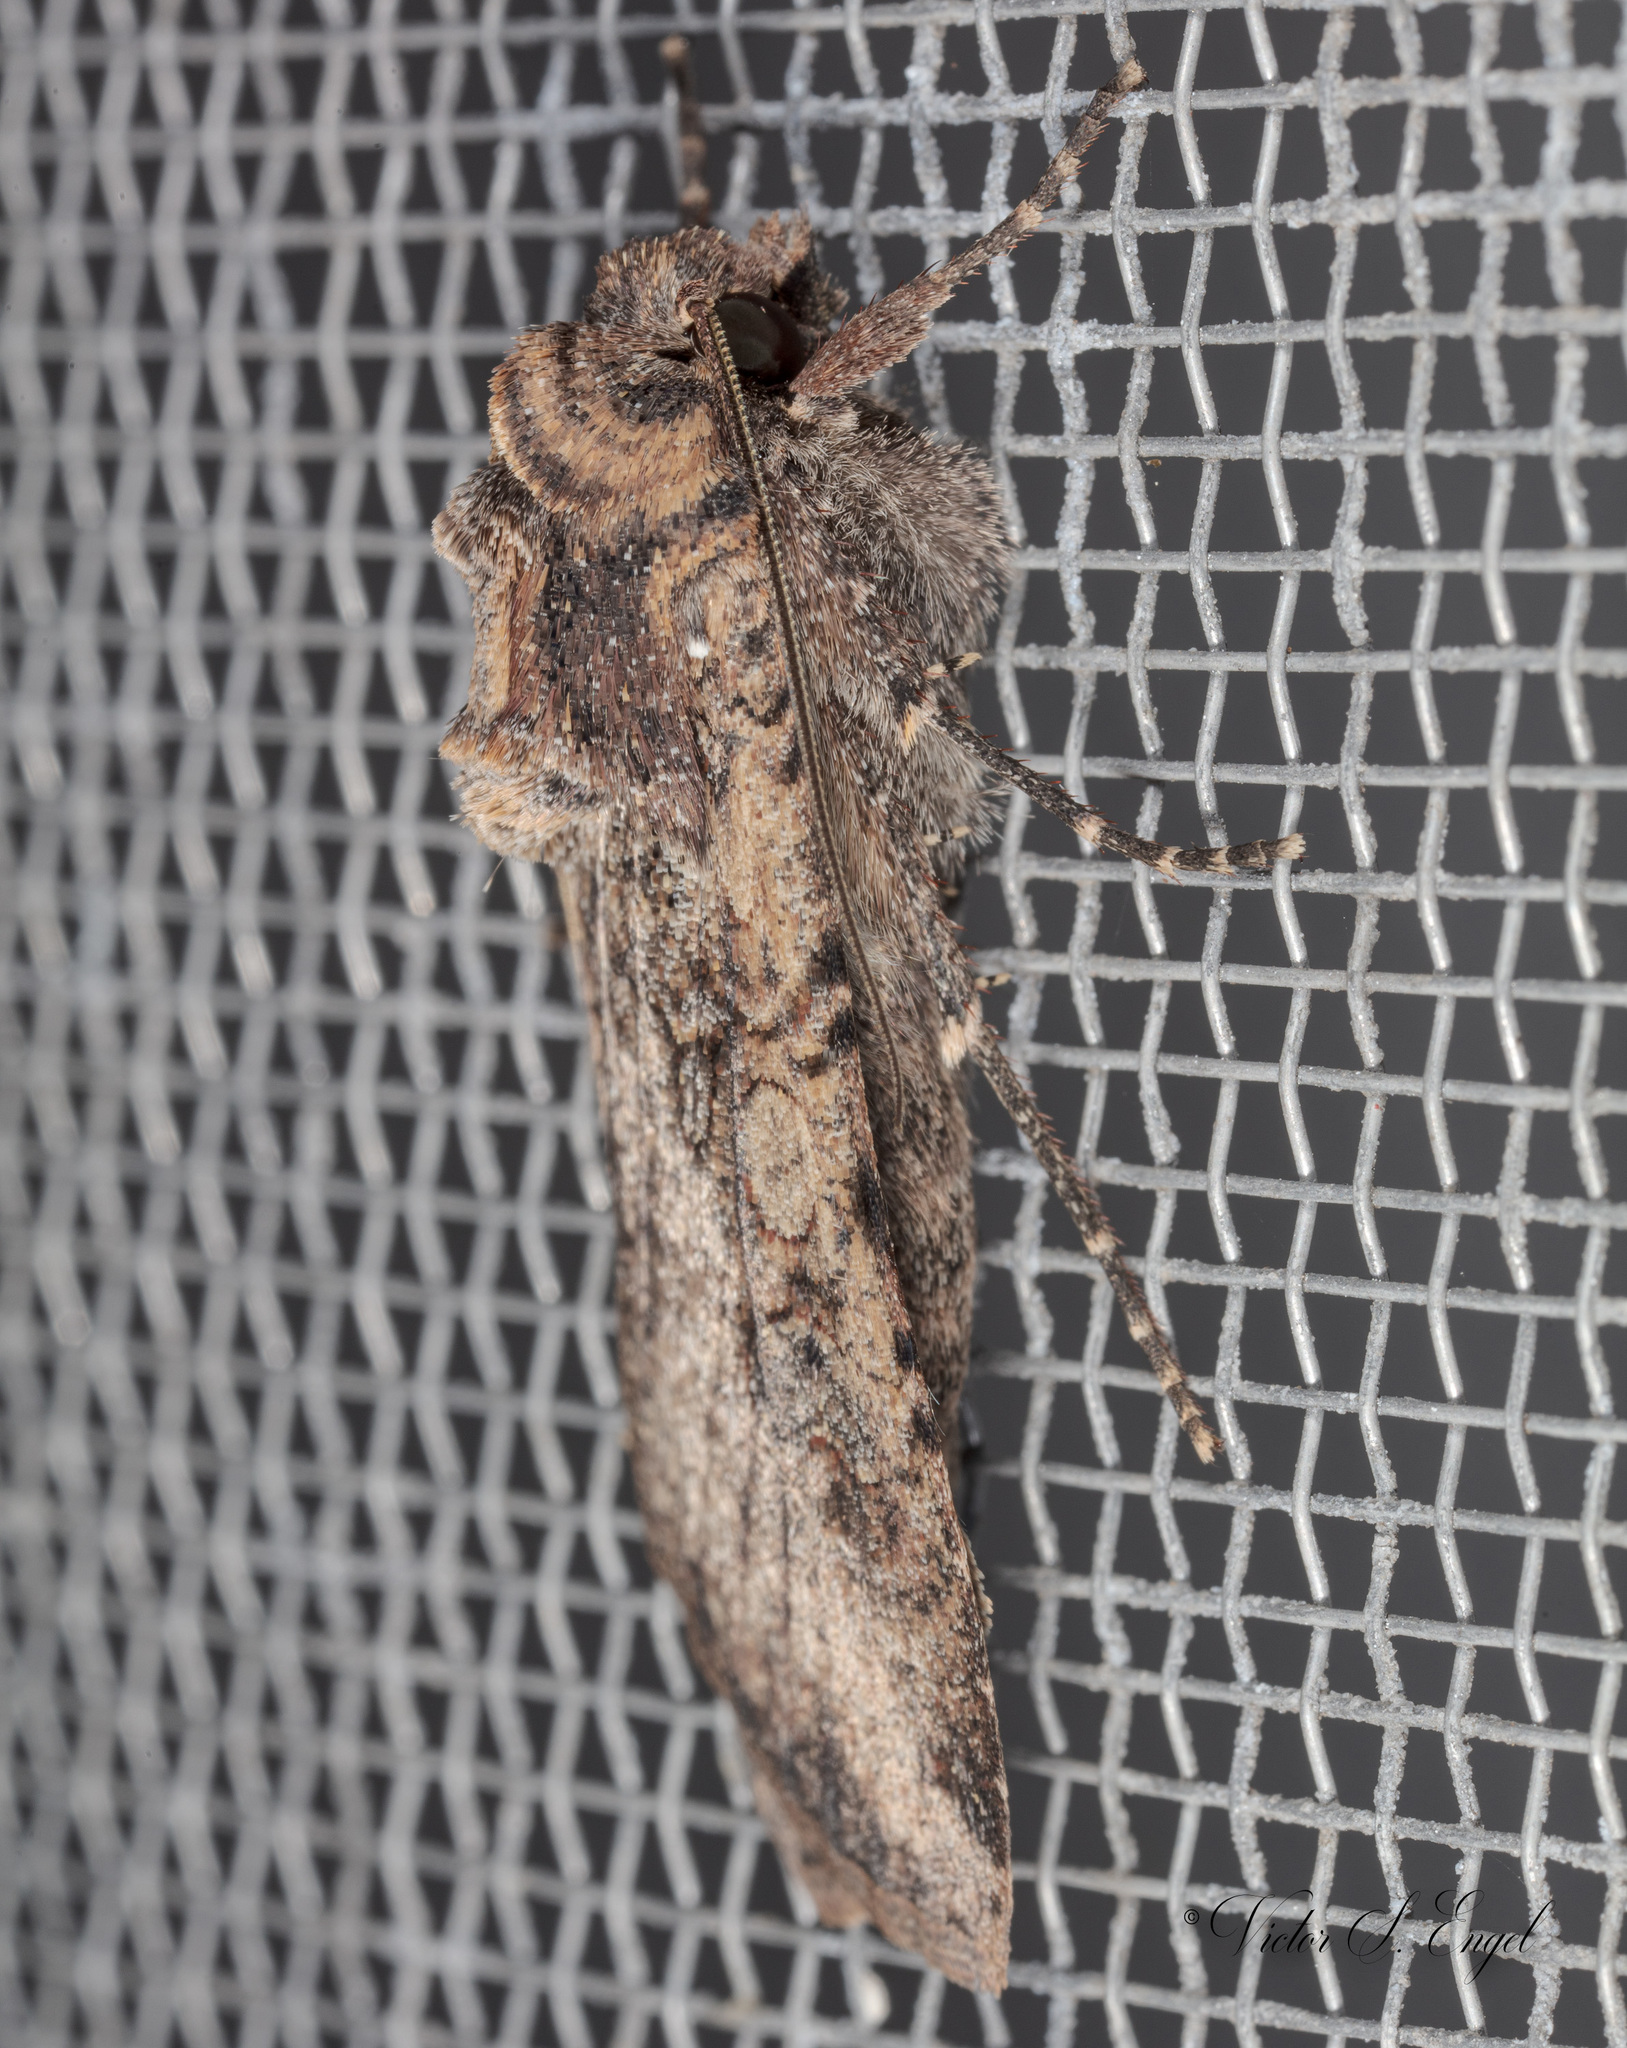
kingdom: Animalia
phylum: Arthropoda
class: Insecta
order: Lepidoptera
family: Noctuidae
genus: Peridroma
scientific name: Peridroma saucia
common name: Pearly underwing
